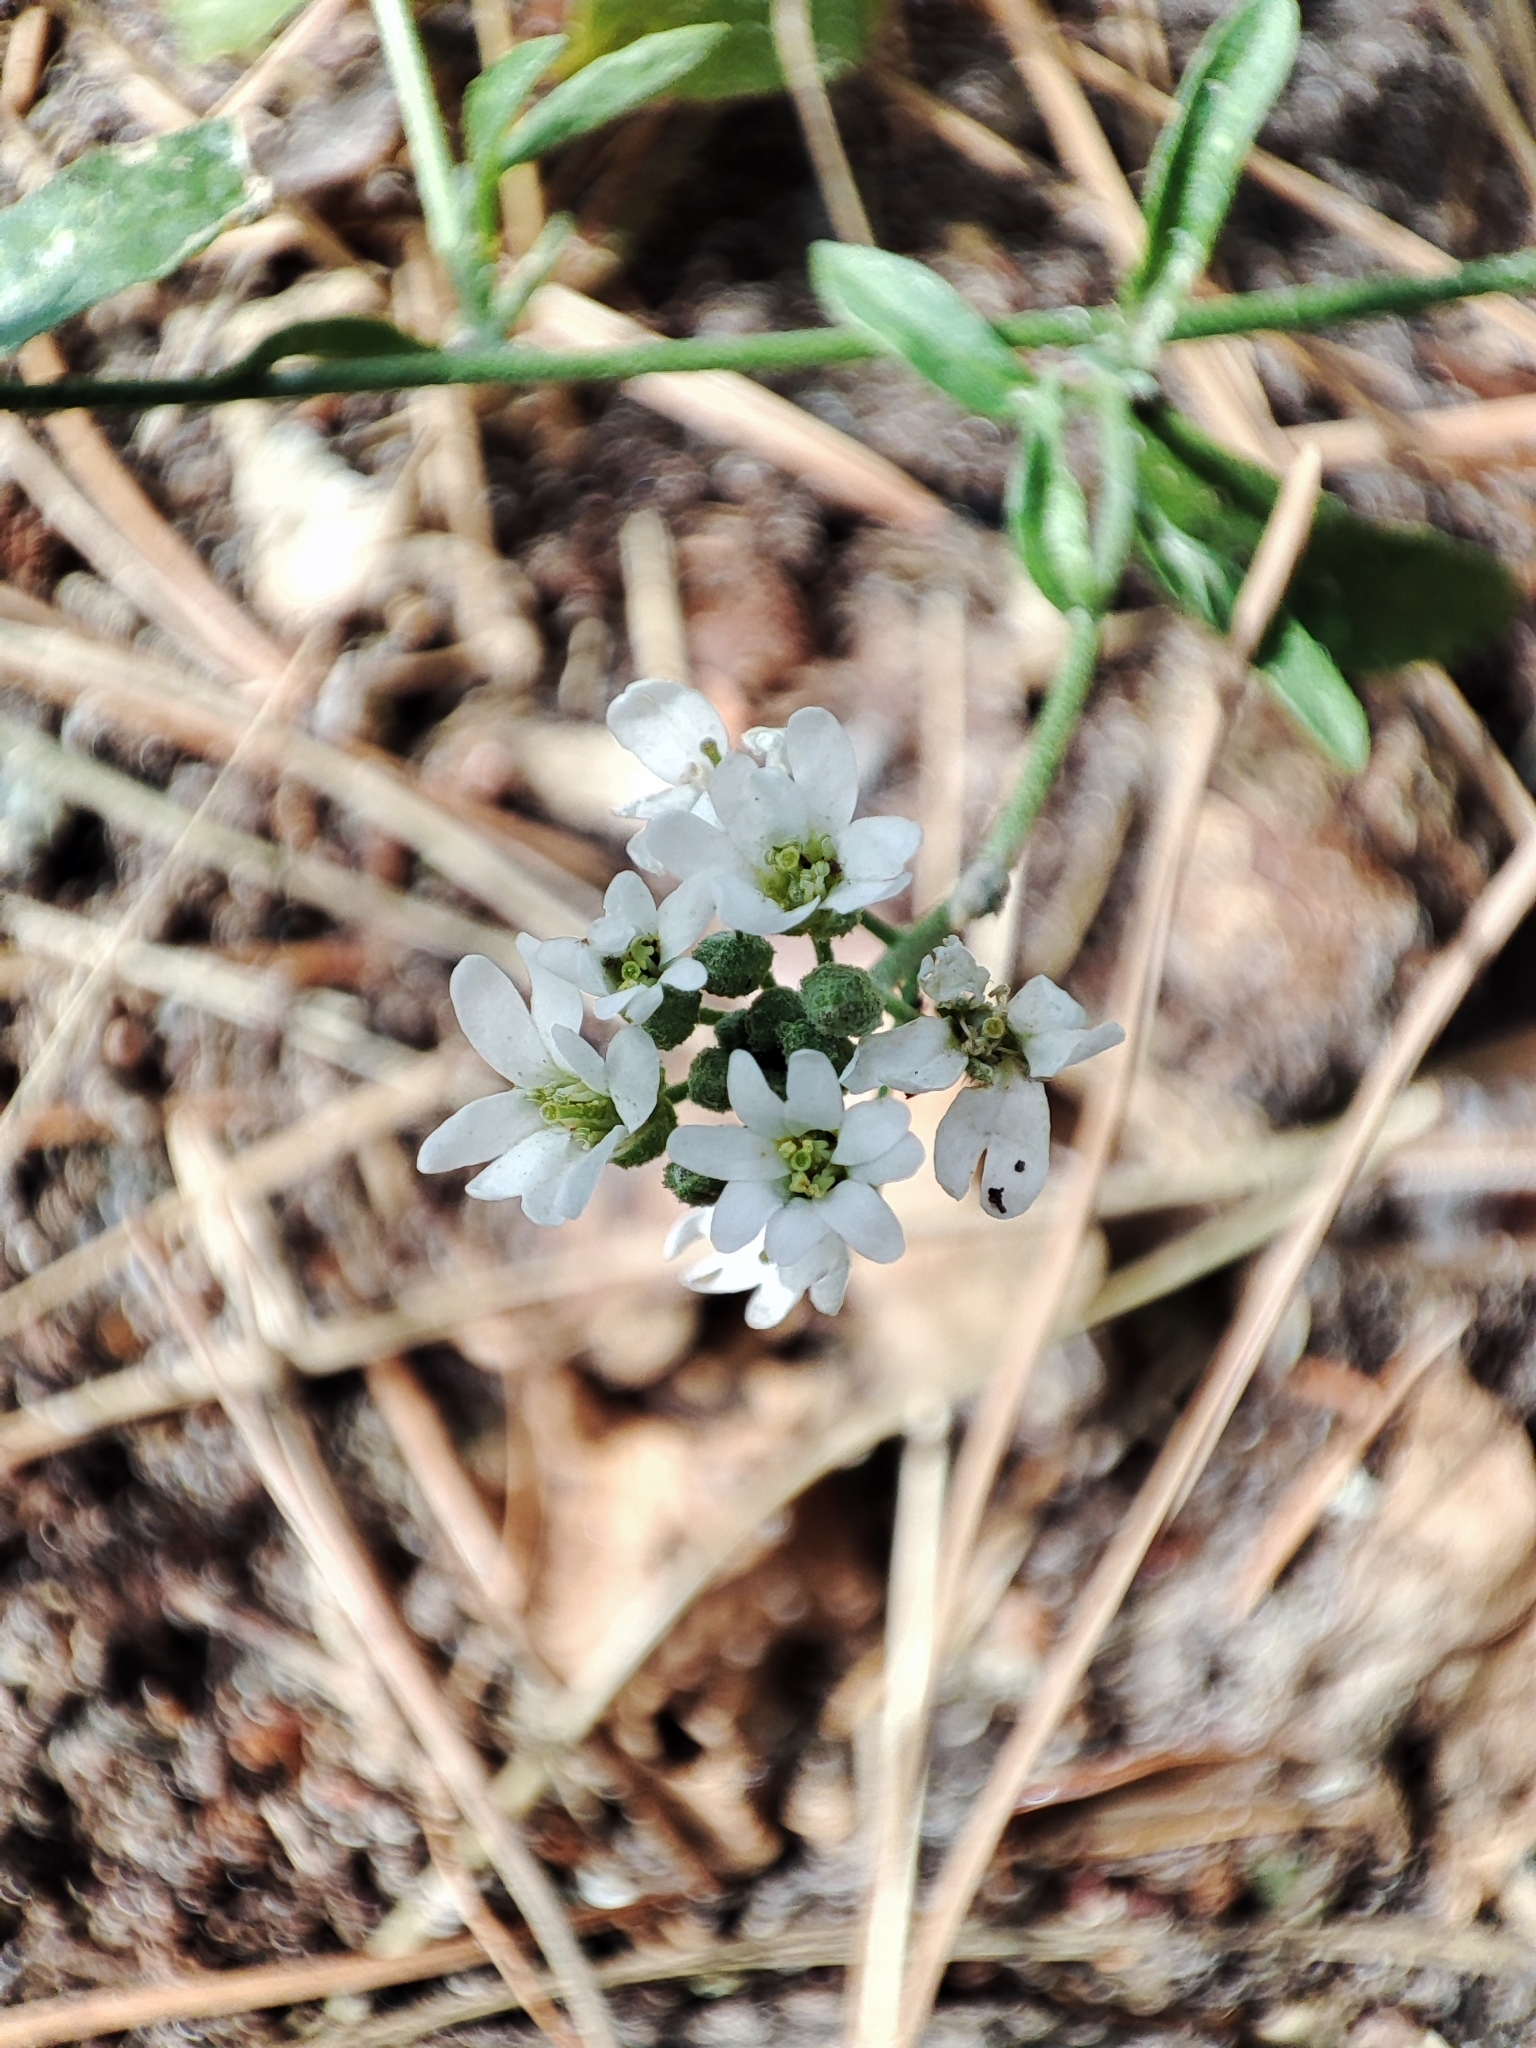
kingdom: Plantae
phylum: Tracheophyta
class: Magnoliopsida
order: Brassicales
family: Brassicaceae
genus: Berteroa
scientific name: Berteroa incana
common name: Hoary alison
